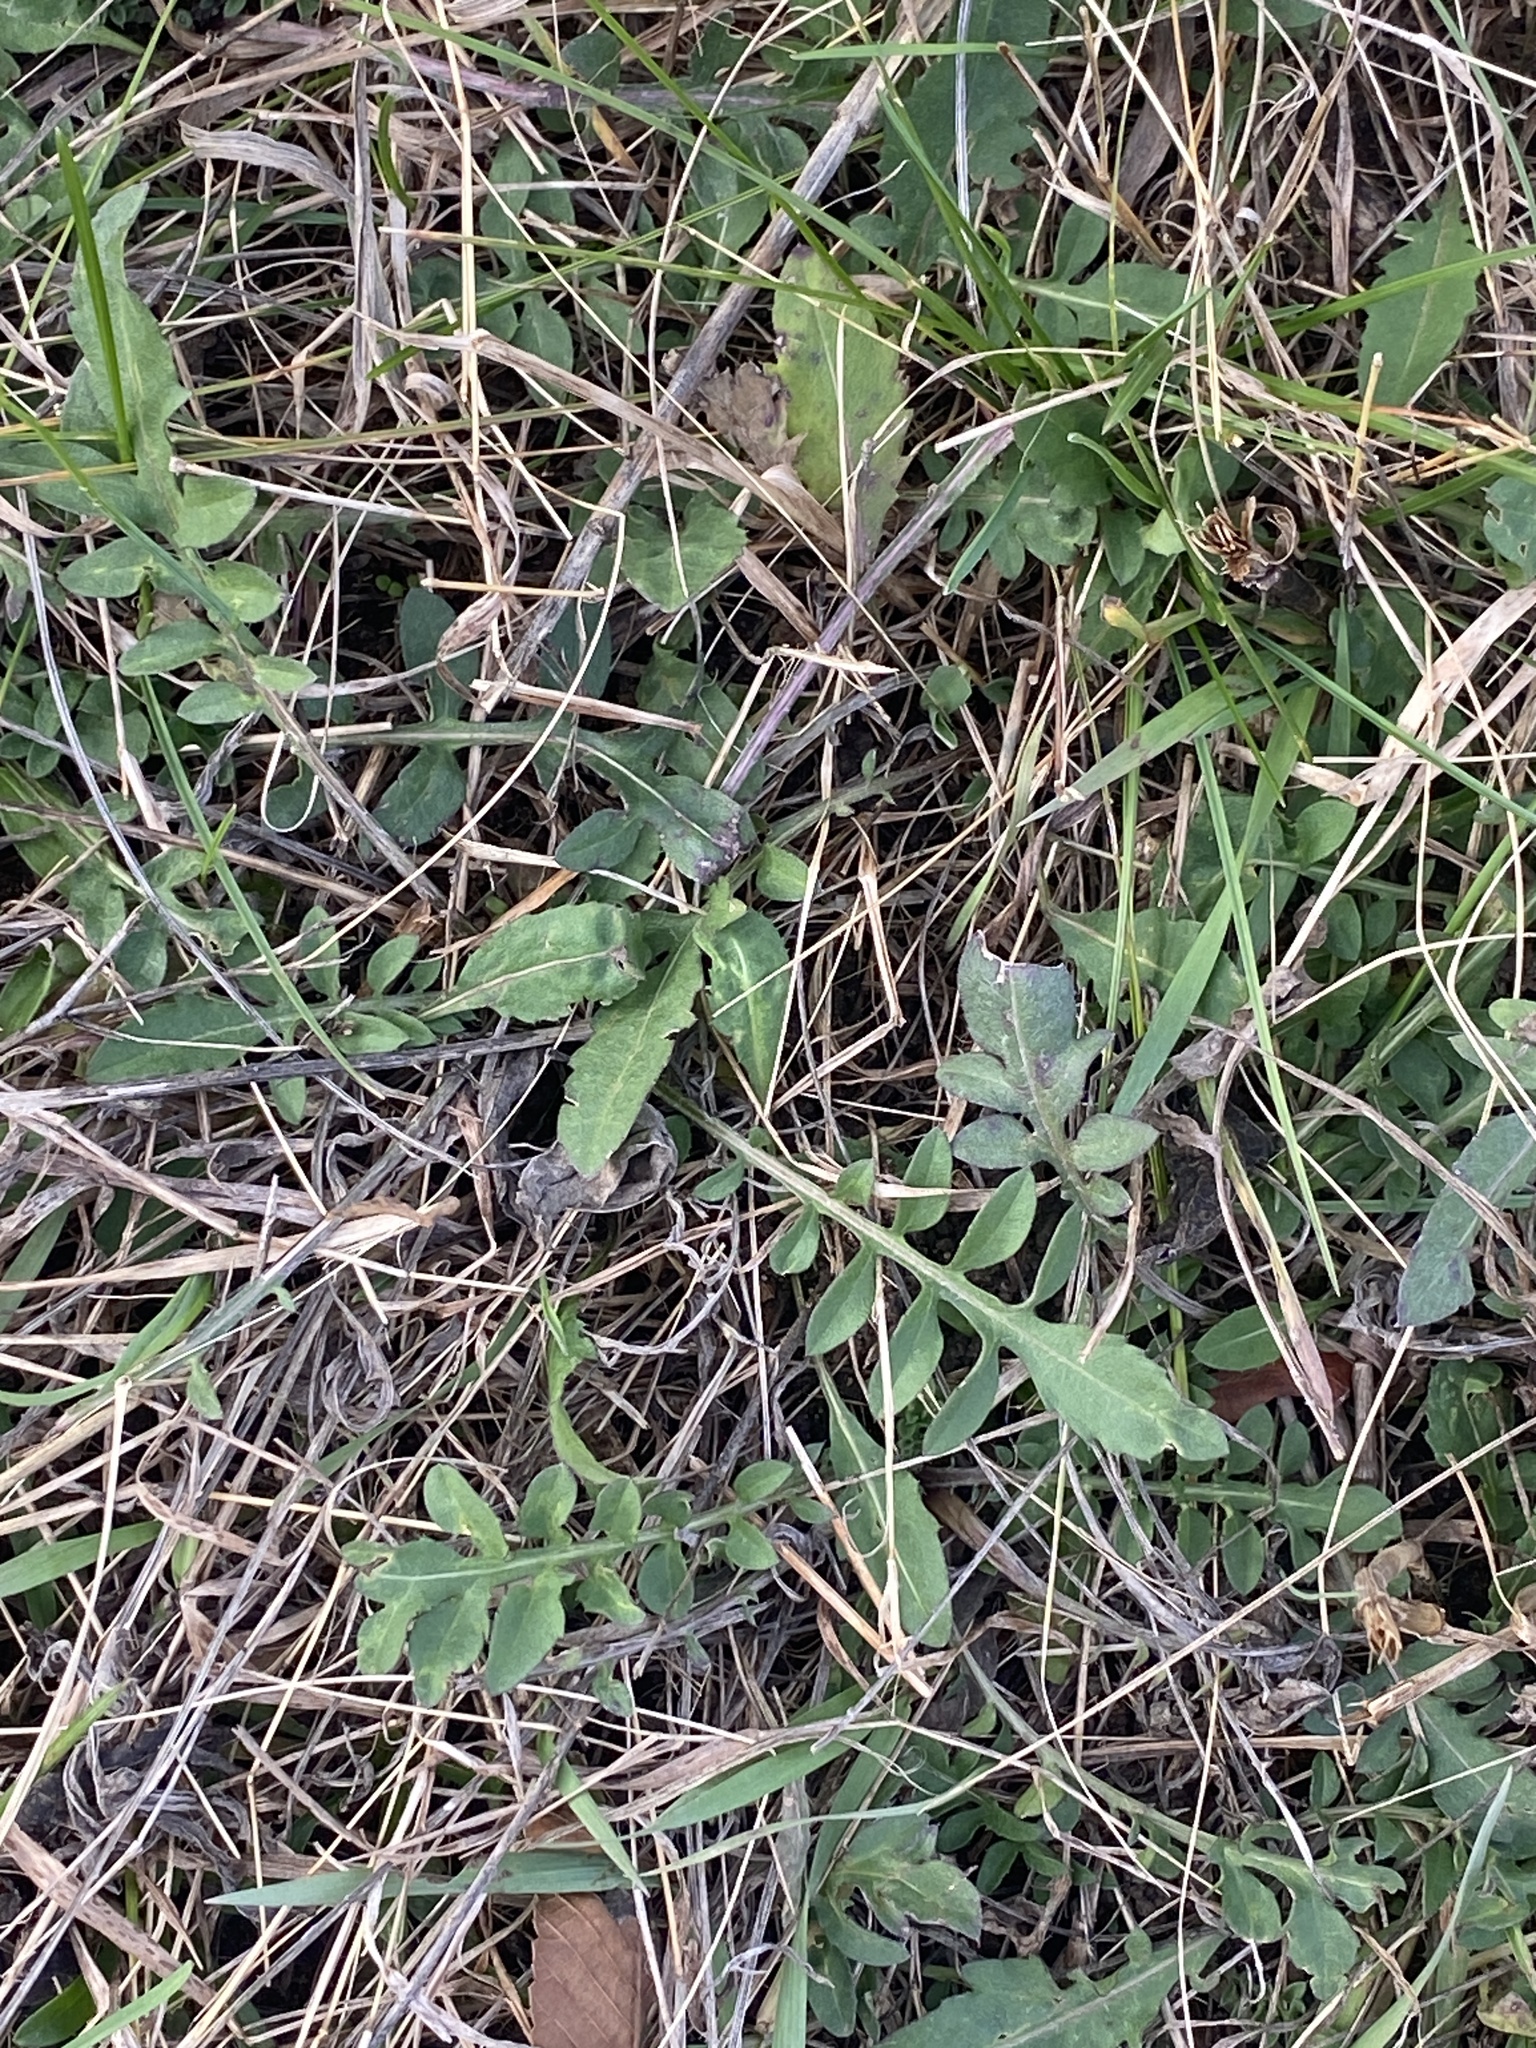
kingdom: Plantae
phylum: Tracheophyta
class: Magnoliopsida
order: Asterales
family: Asteraceae
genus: Centaurea
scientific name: Centaurea stoebe
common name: Spotted knapweed
